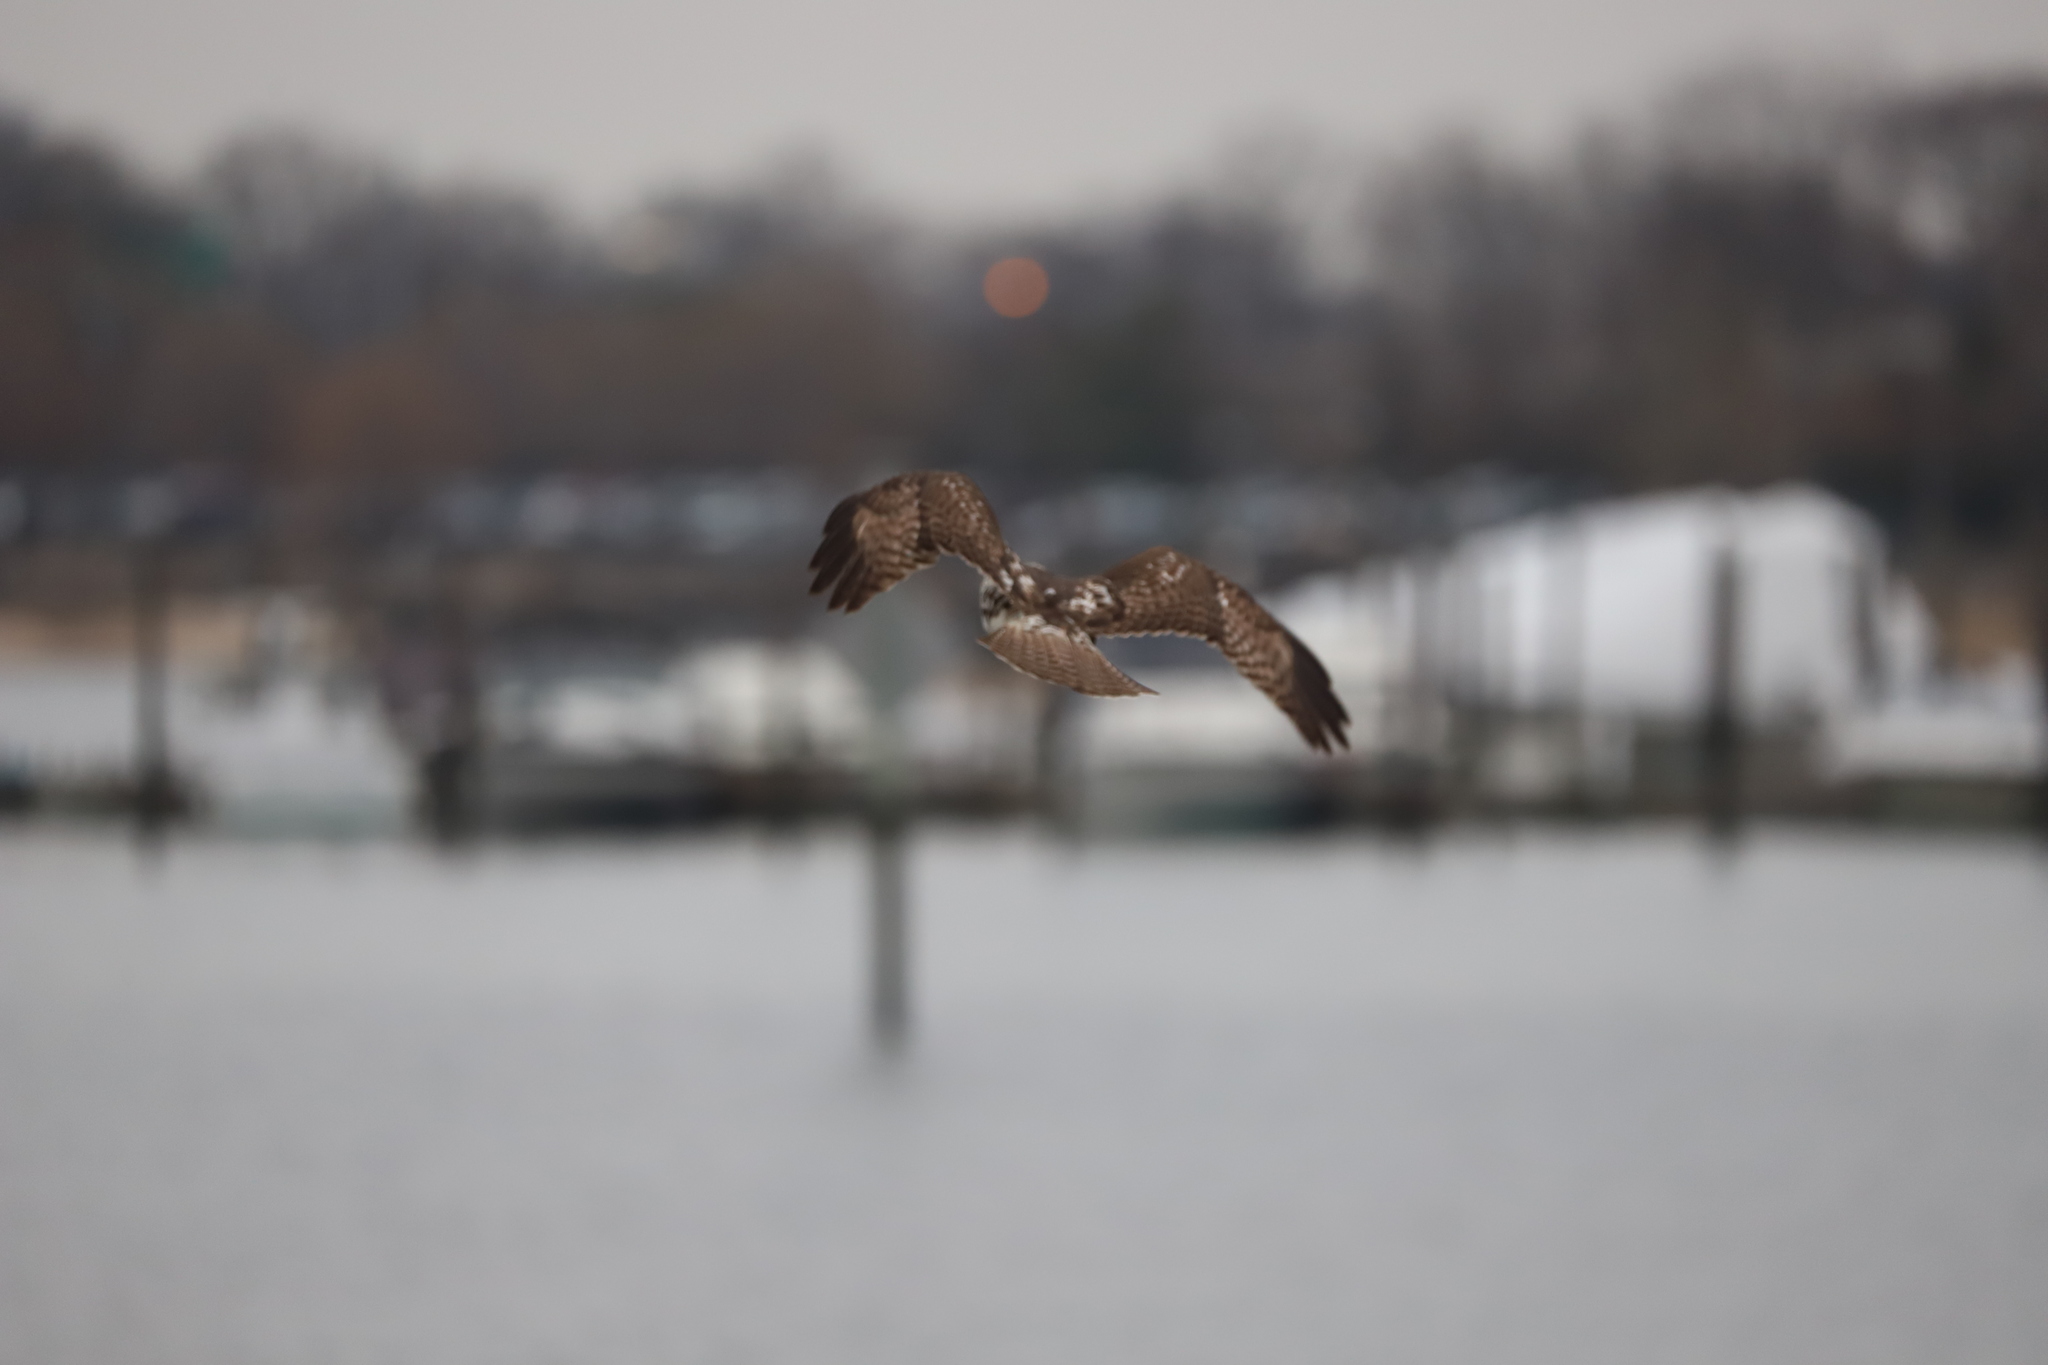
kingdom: Animalia
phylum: Chordata
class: Aves
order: Accipitriformes
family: Accipitridae
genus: Buteo
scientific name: Buteo jamaicensis
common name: Red-tailed hawk
